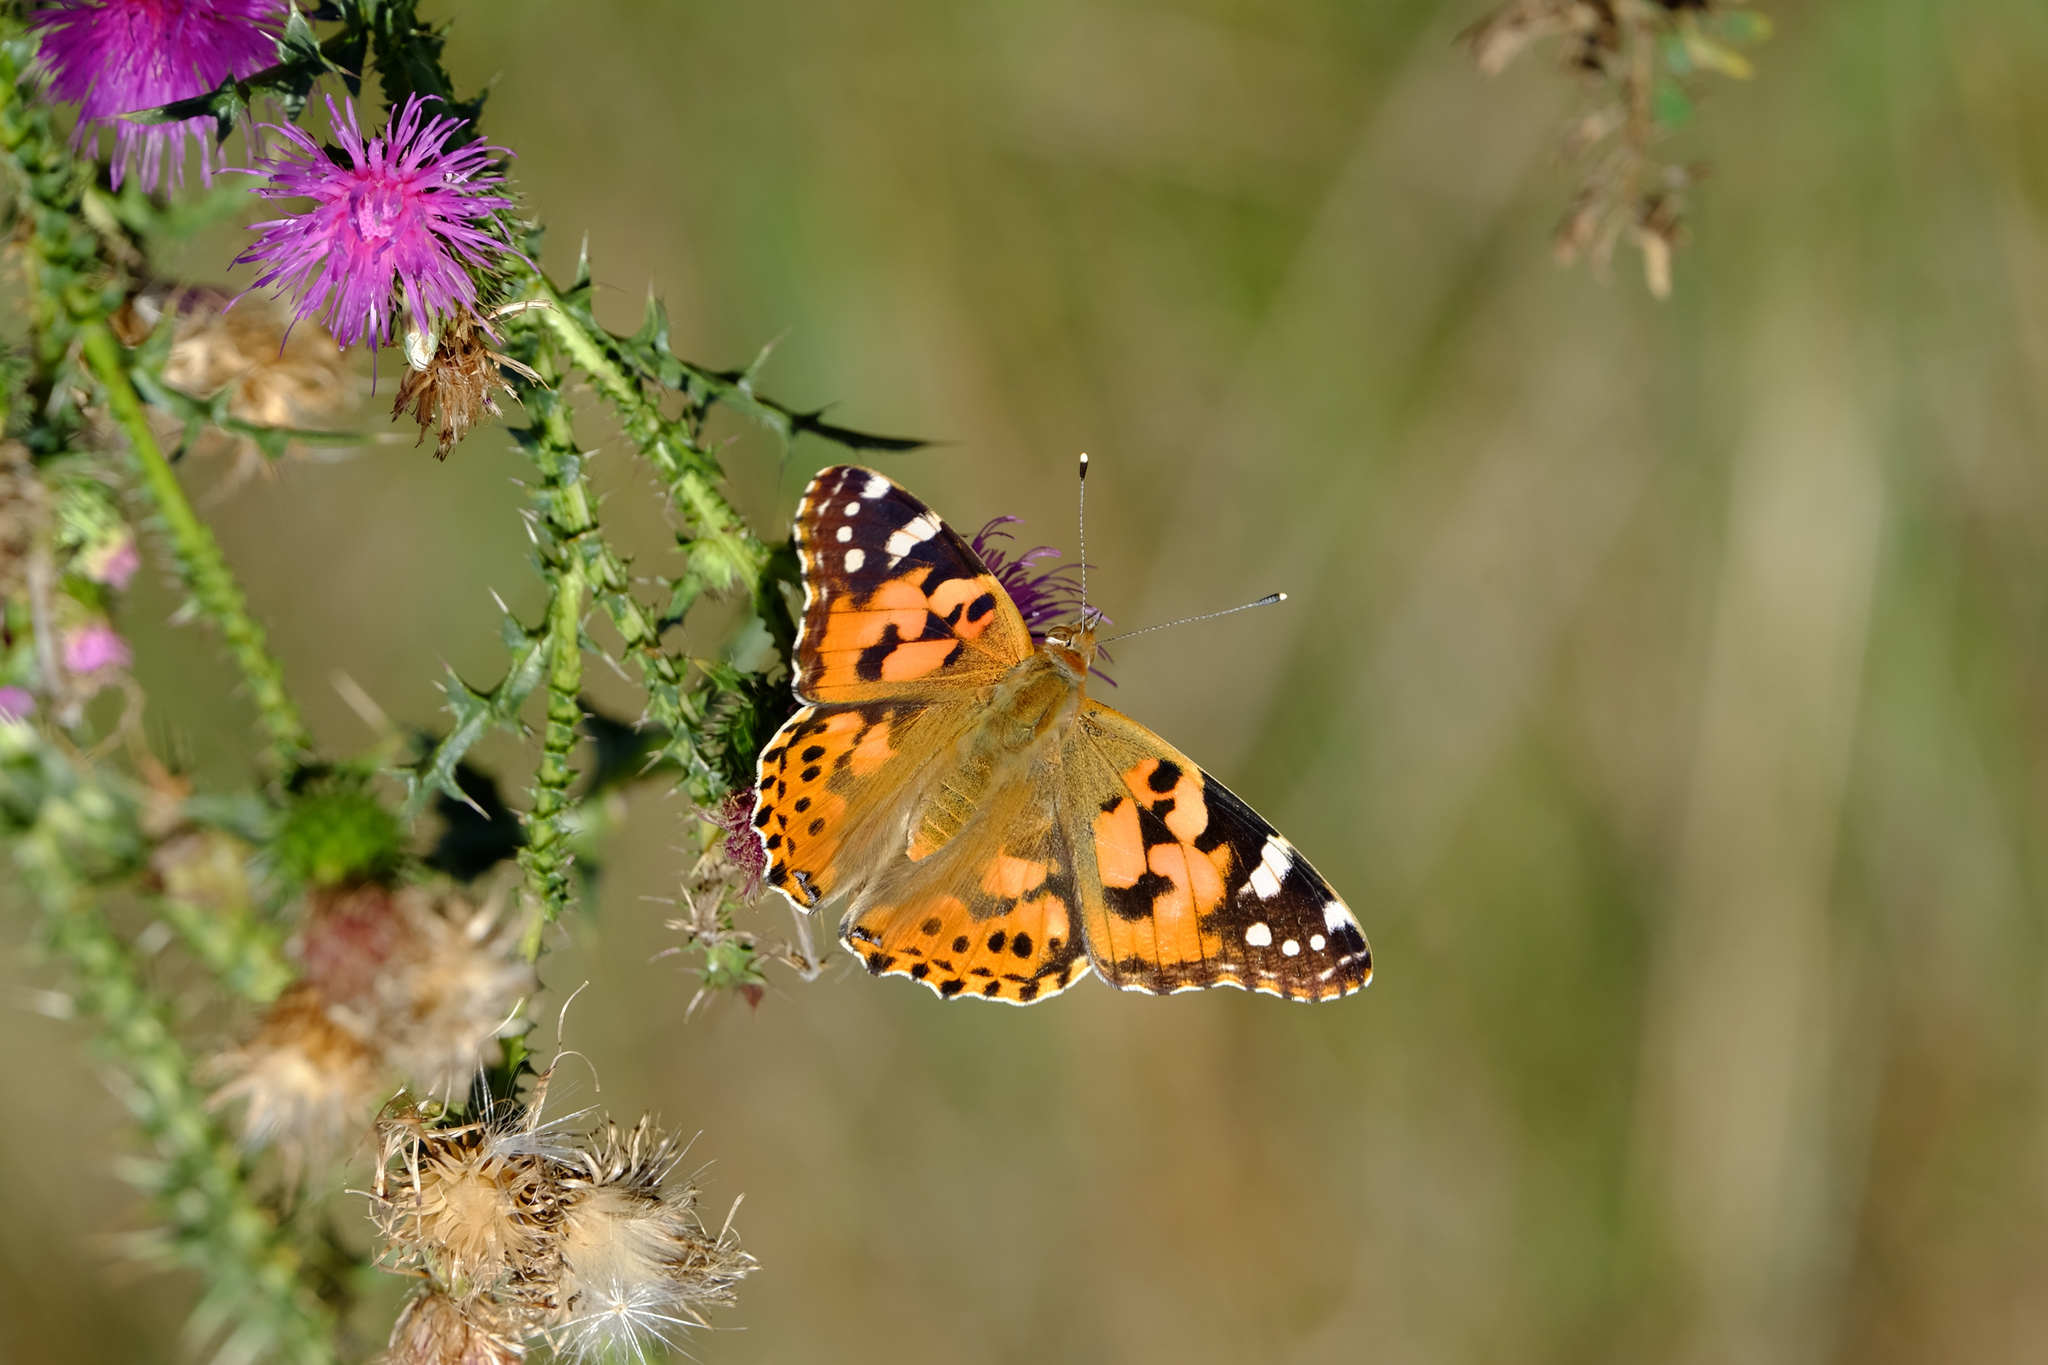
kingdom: Animalia
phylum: Arthropoda
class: Insecta
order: Lepidoptera
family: Nymphalidae
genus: Vanessa
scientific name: Vanessa cardui
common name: Painted lady
